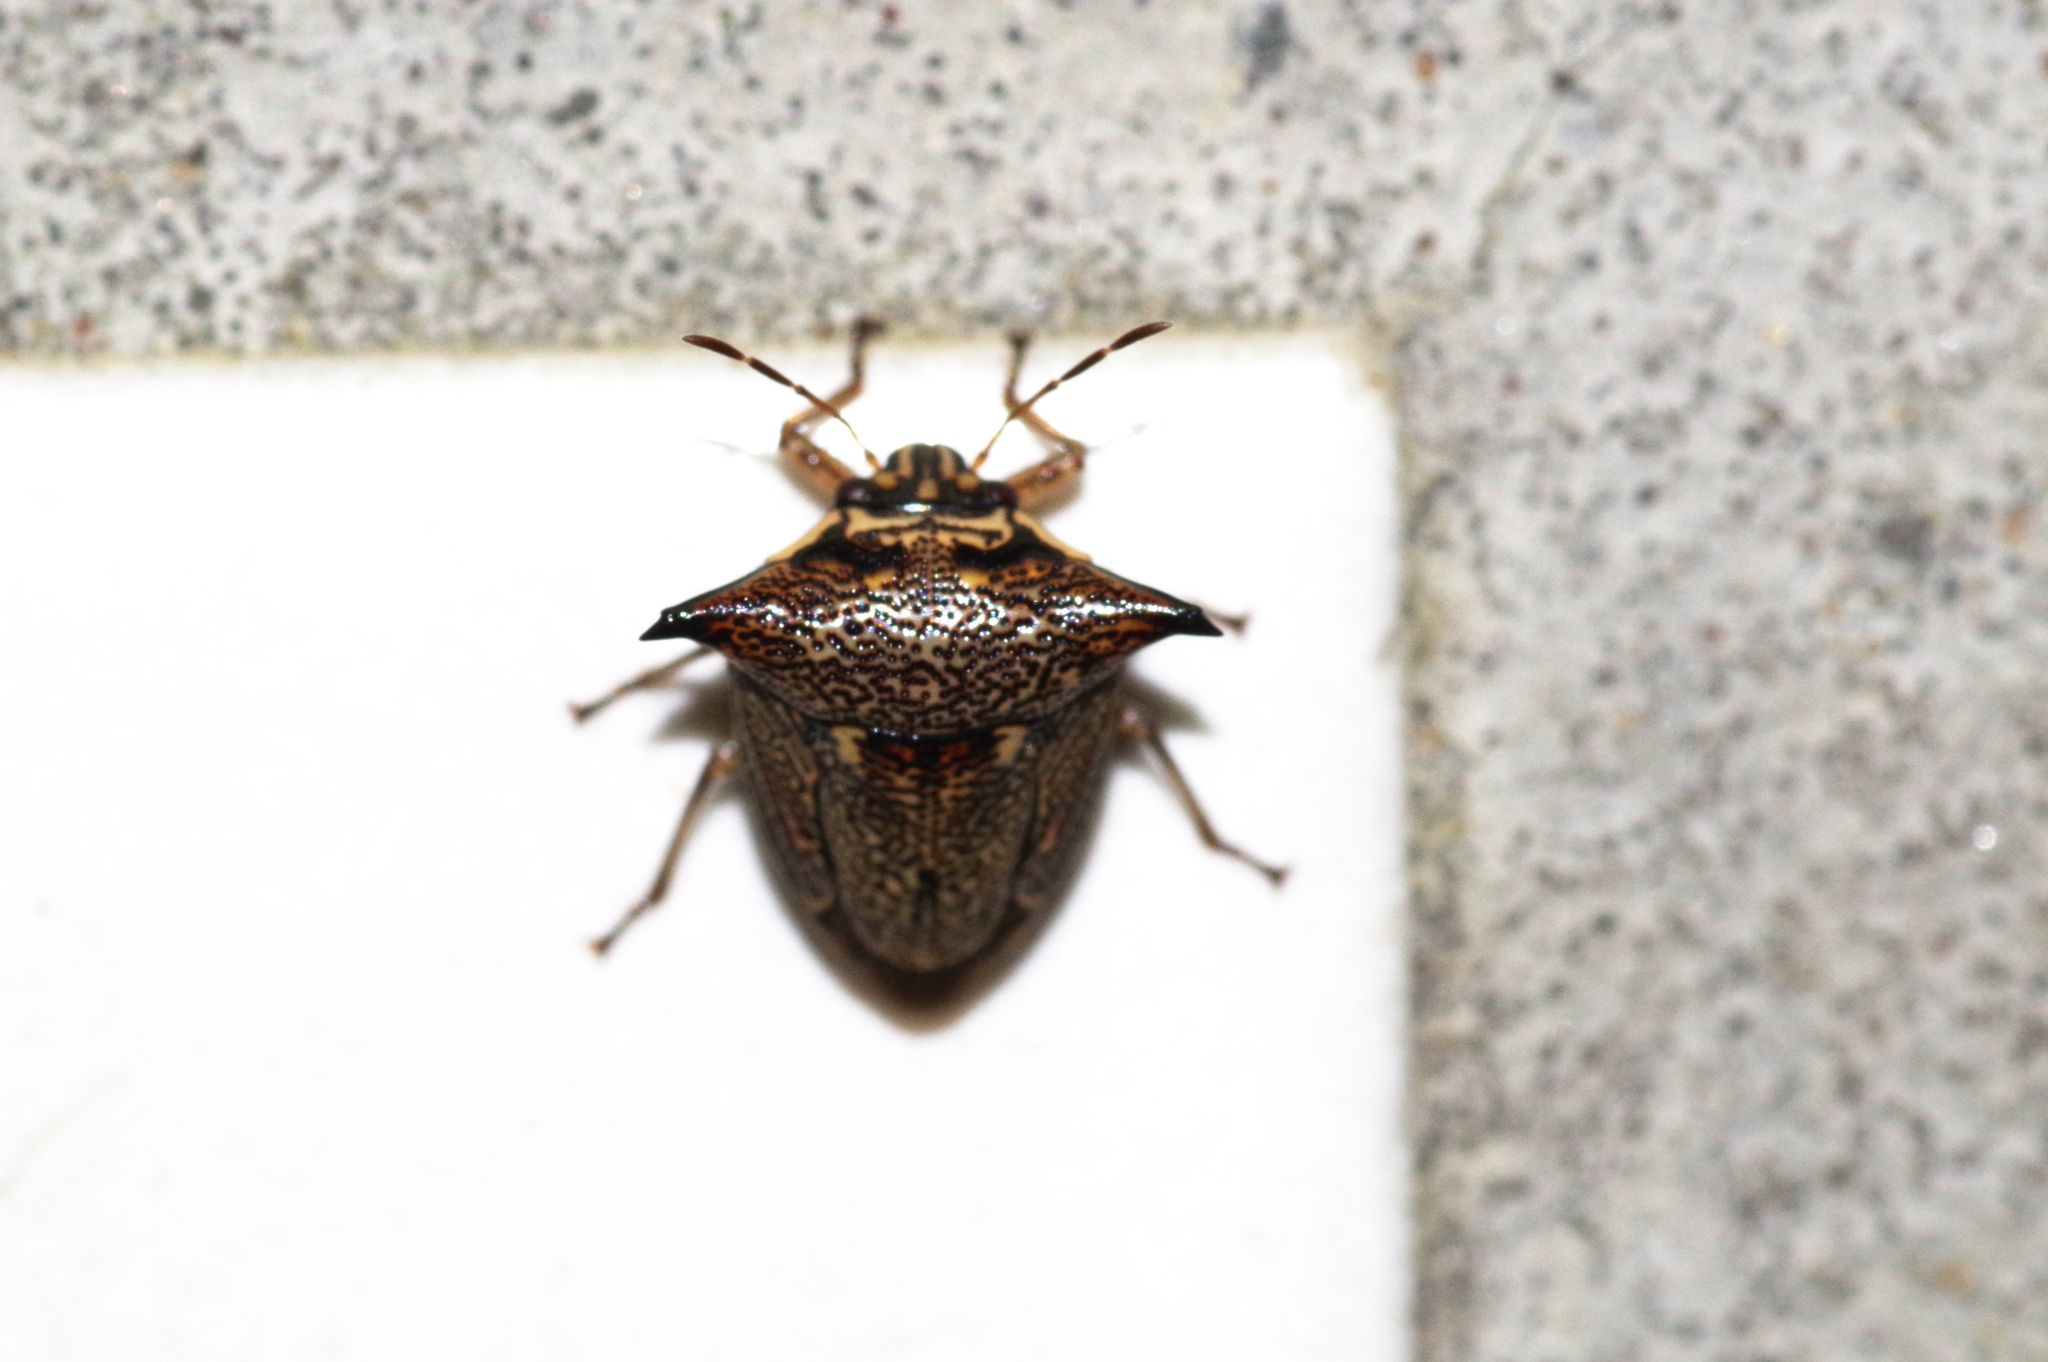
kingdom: Animalia
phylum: Arthropoda
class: Insecta
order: Hemiptera
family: Pentatomidae
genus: Alcimocoris
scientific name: Alcimocoris japonersis
